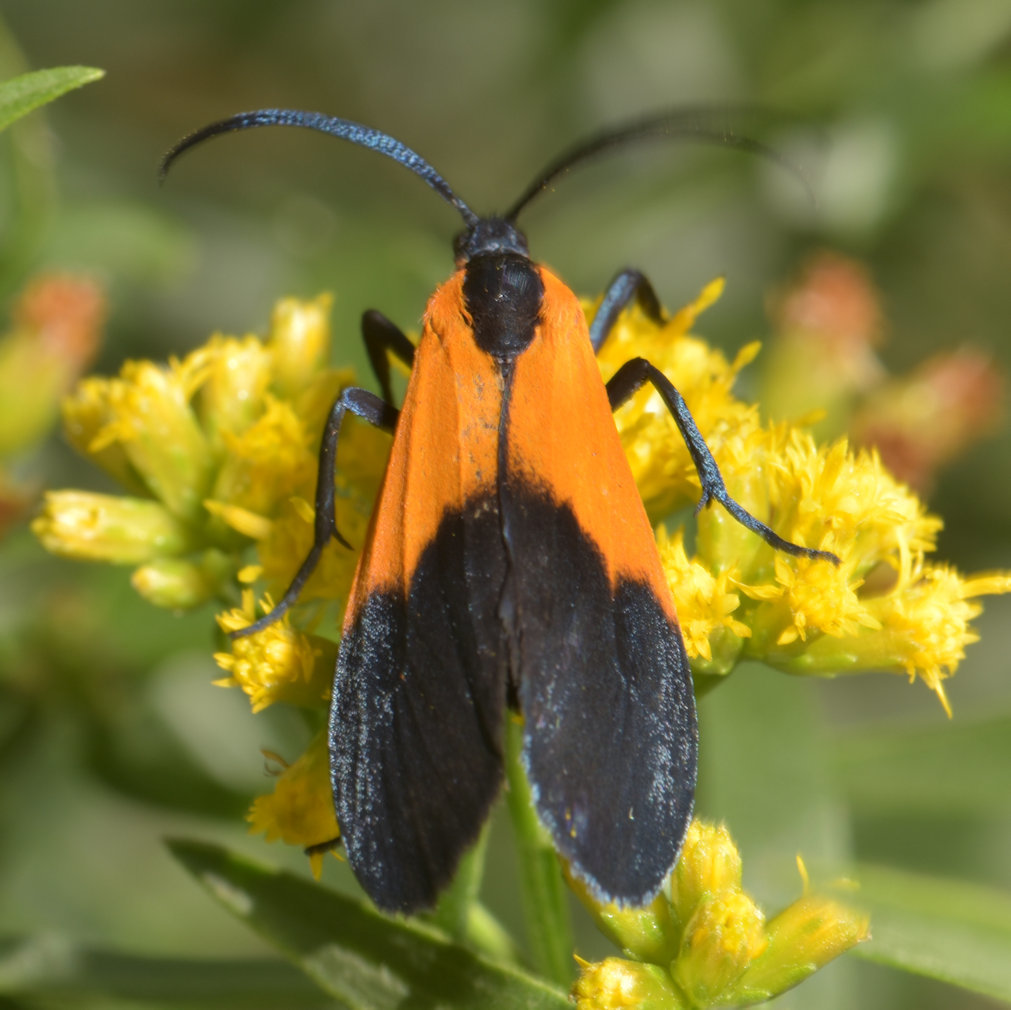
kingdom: Animalia
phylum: Arthropoda
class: Insecta
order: Lepidoptera
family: Erebidae
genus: Lycomorpha
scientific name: Lycomorpha pholus
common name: Black-and-yellow lichen moth
